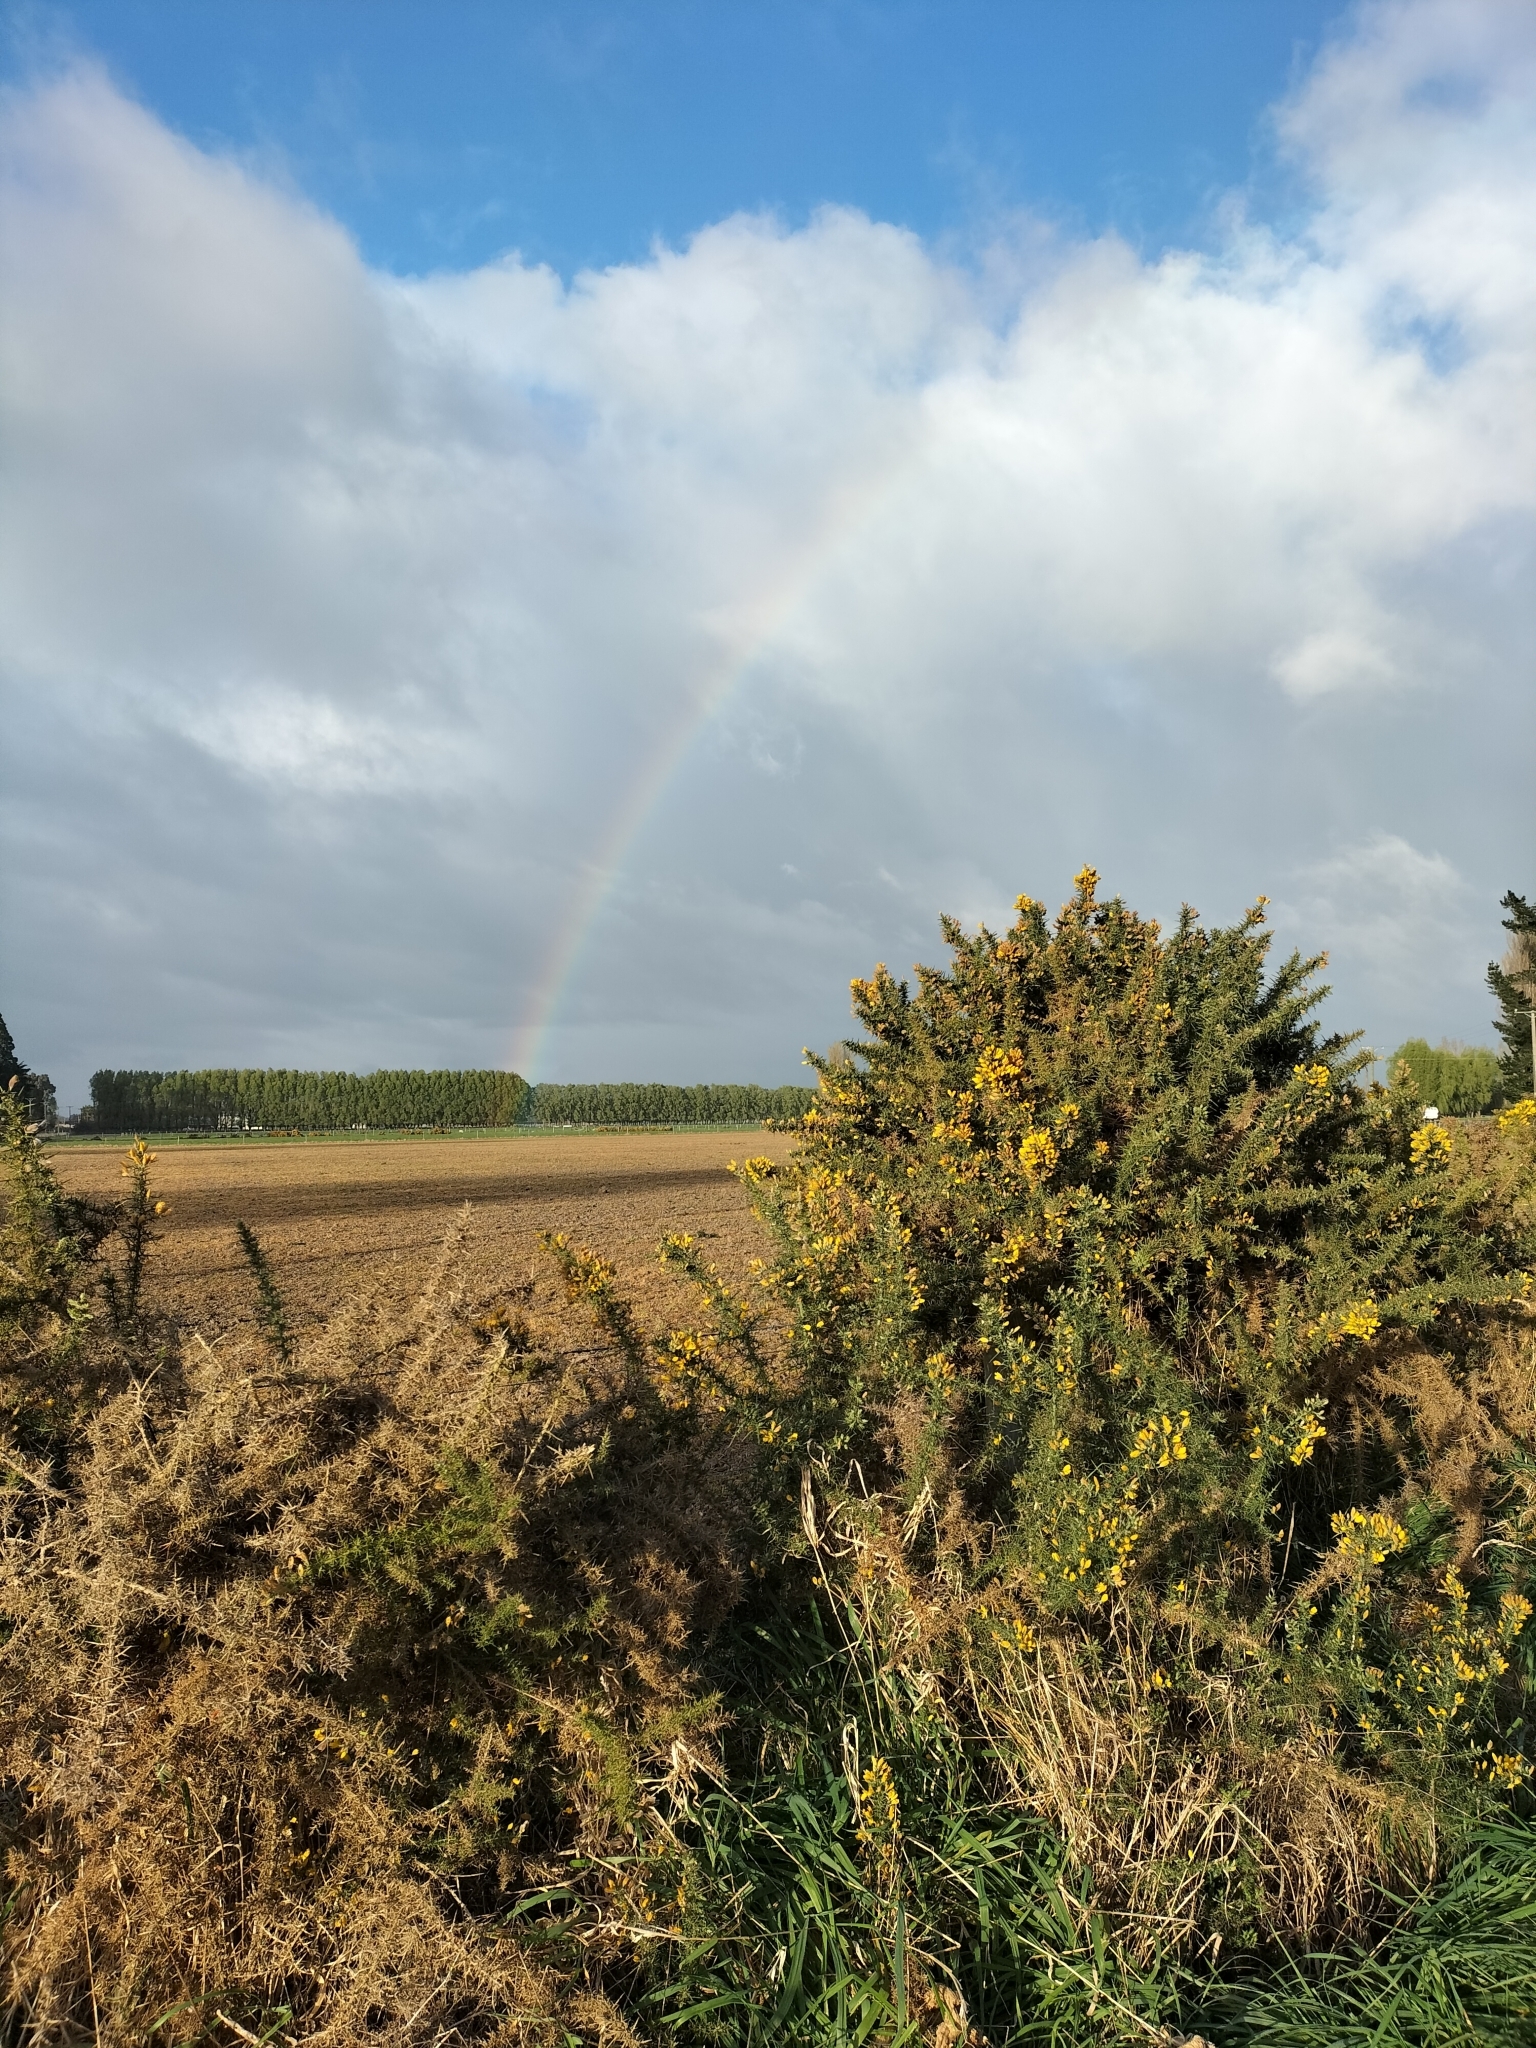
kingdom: Plantae
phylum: Tracheophyta
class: Magnoliopsida
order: Fabales
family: Fabaceae
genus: Ulex
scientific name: Ulex europaeus
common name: Common gorse
